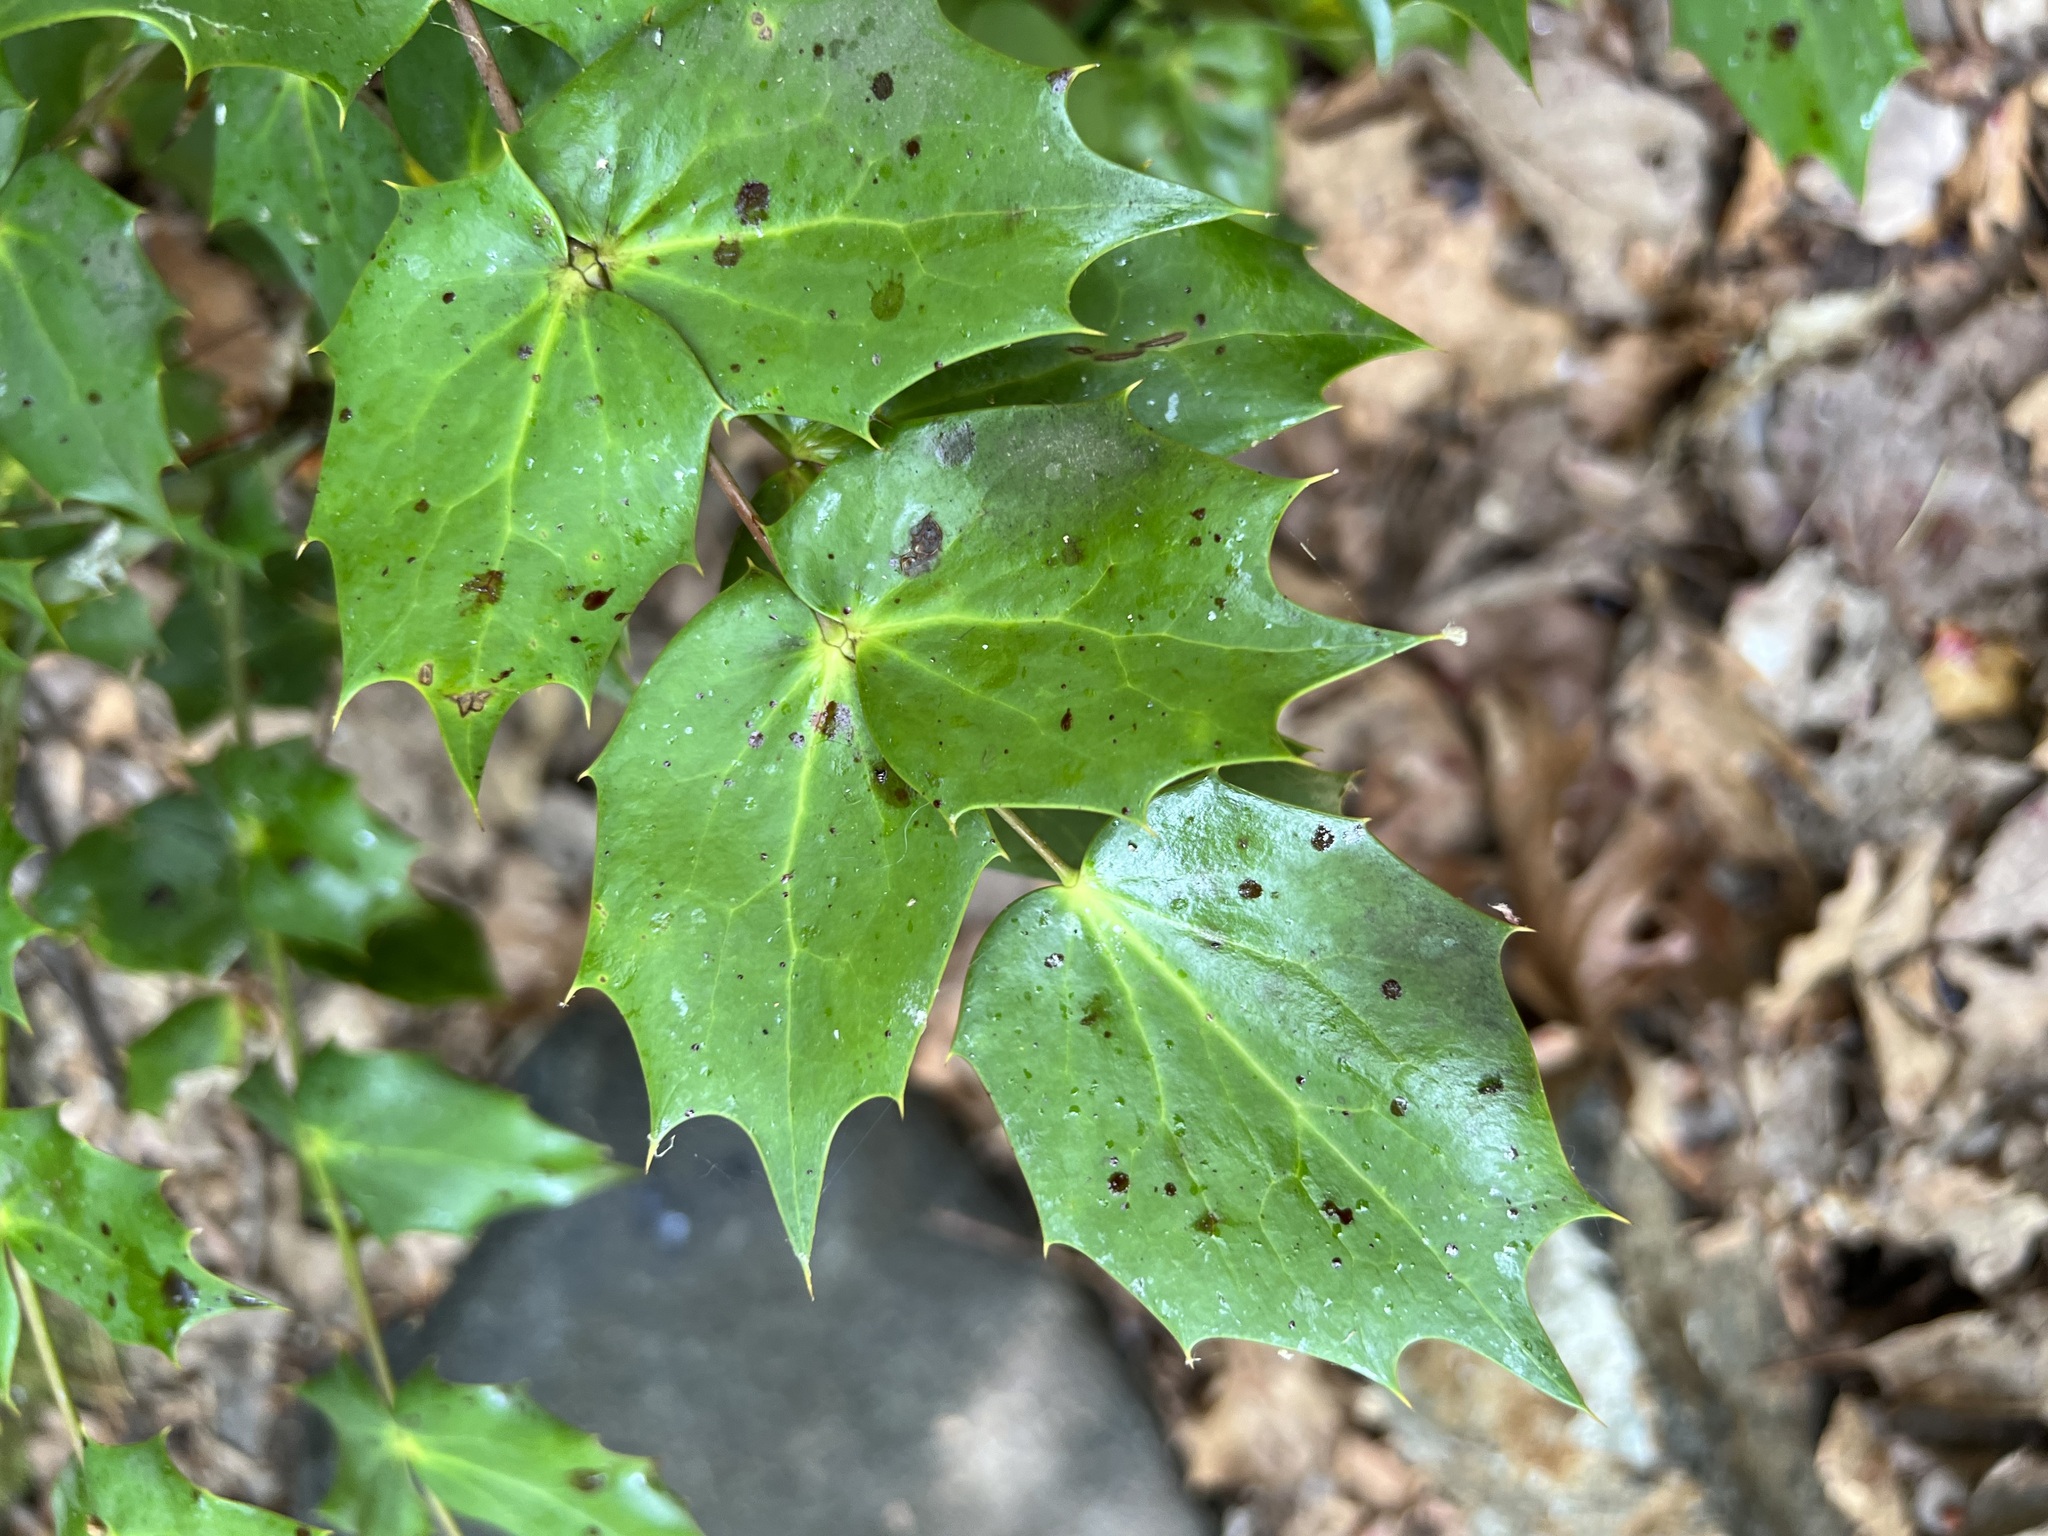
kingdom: Plantae
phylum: Tracheophyta
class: Magnoliopsida
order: Ranunculales
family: Berberidaceae
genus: Mahonia
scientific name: Mahonia bealei
